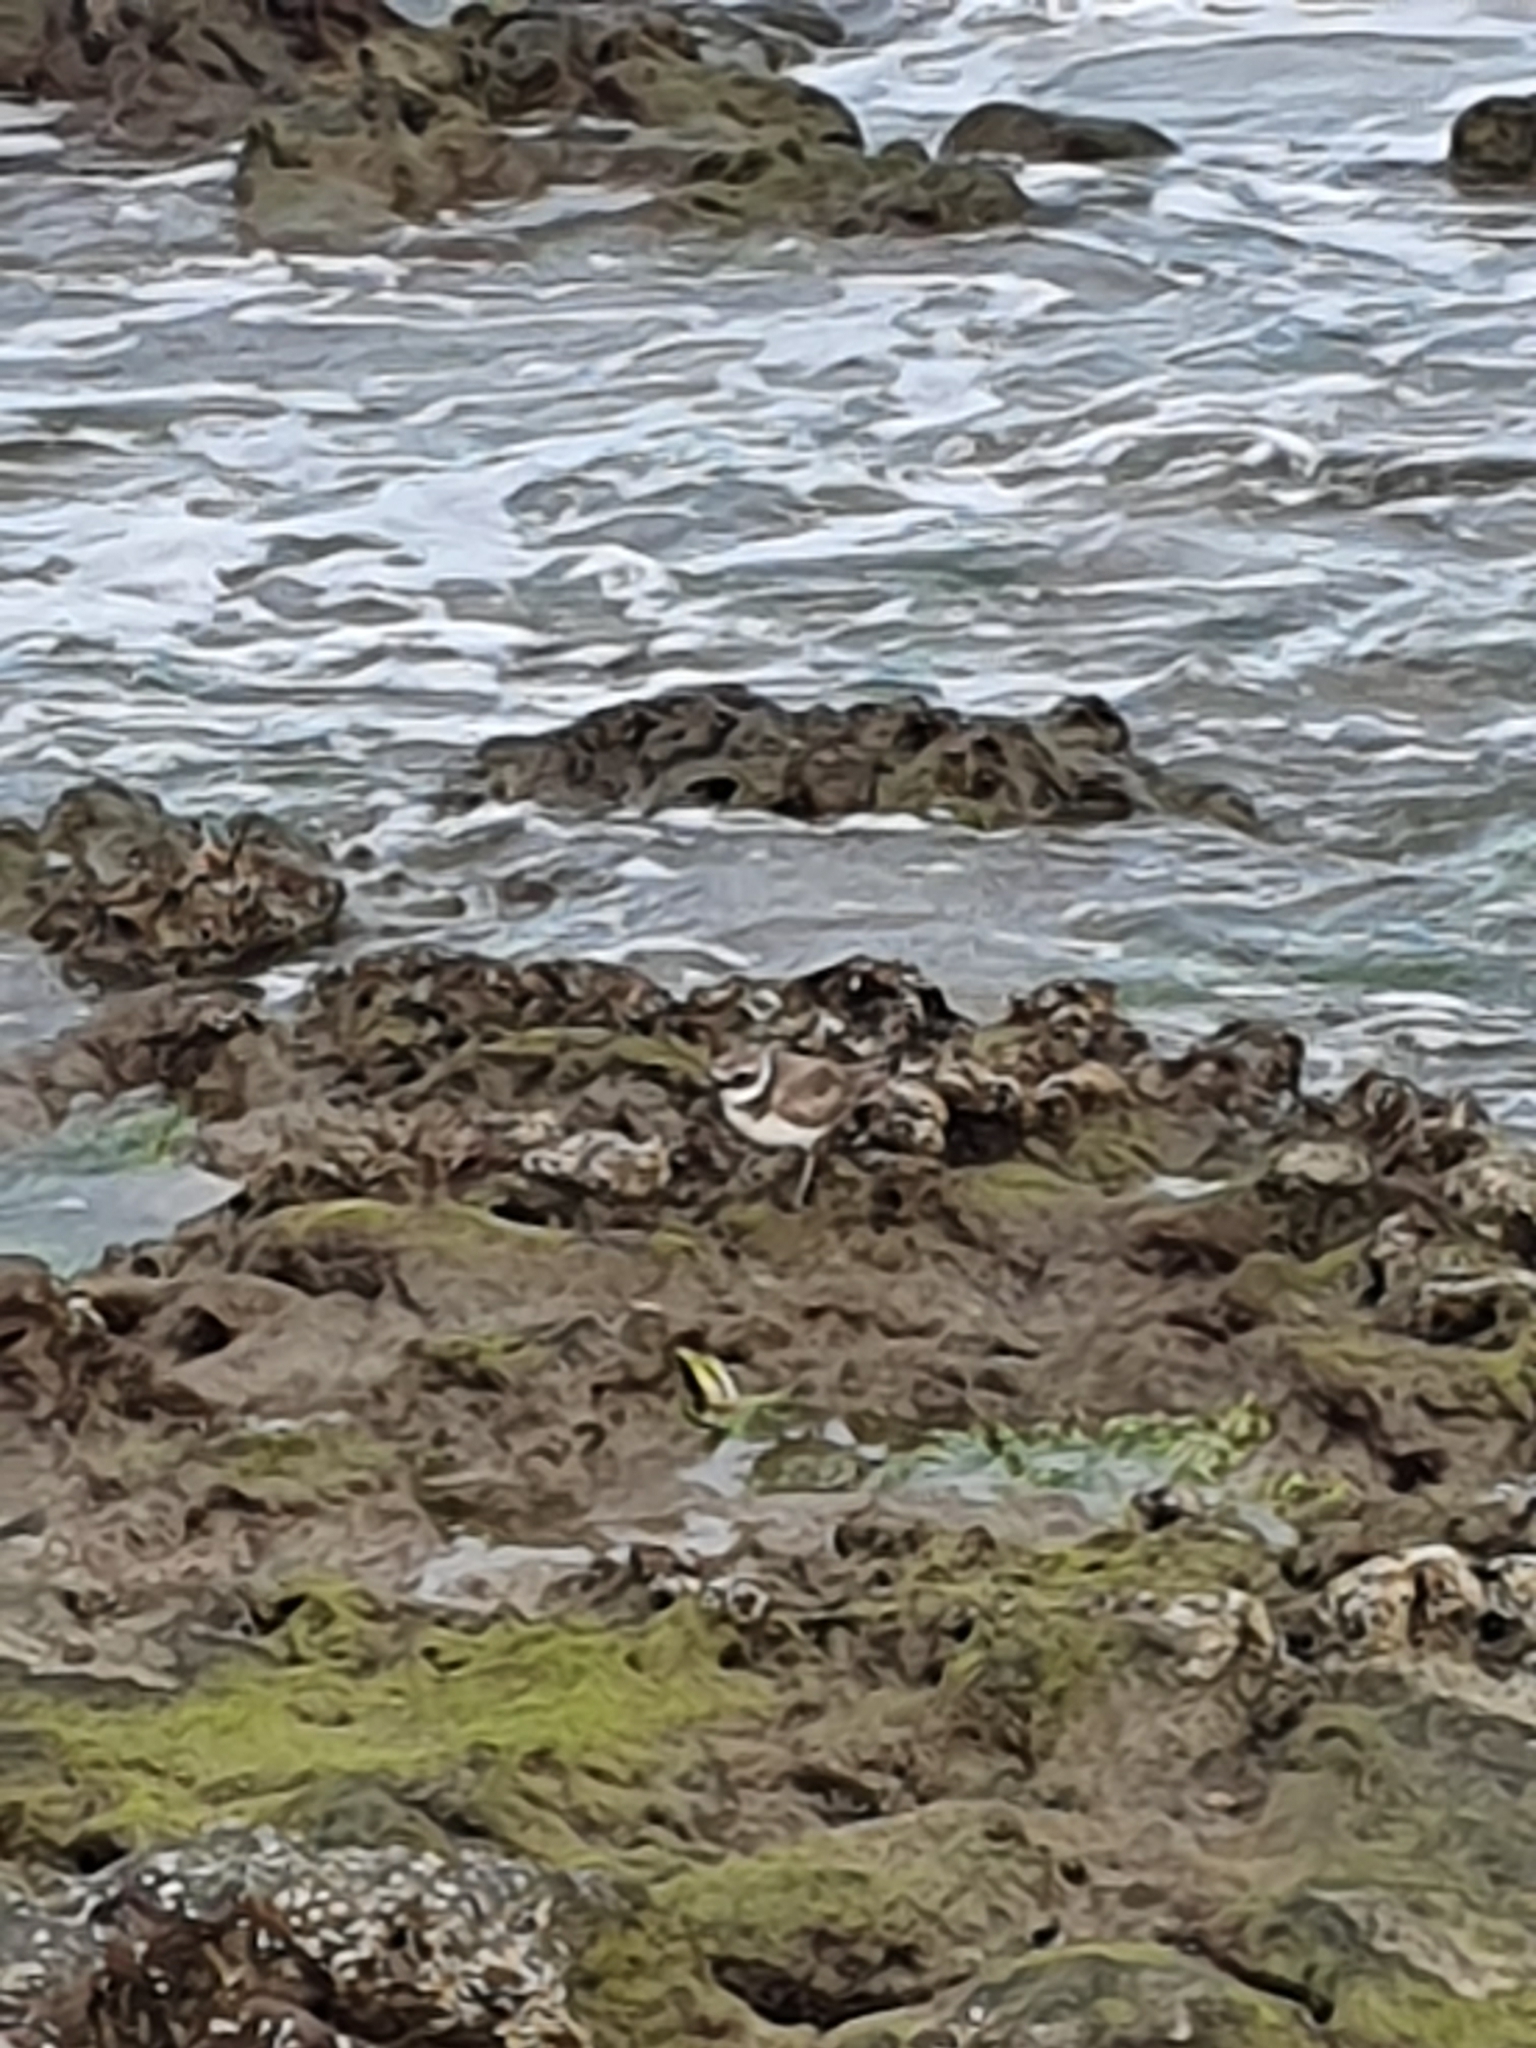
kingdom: Animalia
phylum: Chordata
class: Aves
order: Charadriiformes
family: Charadriidae
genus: Charadrius
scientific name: Charadrius hiaticula
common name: Common ringed plover
